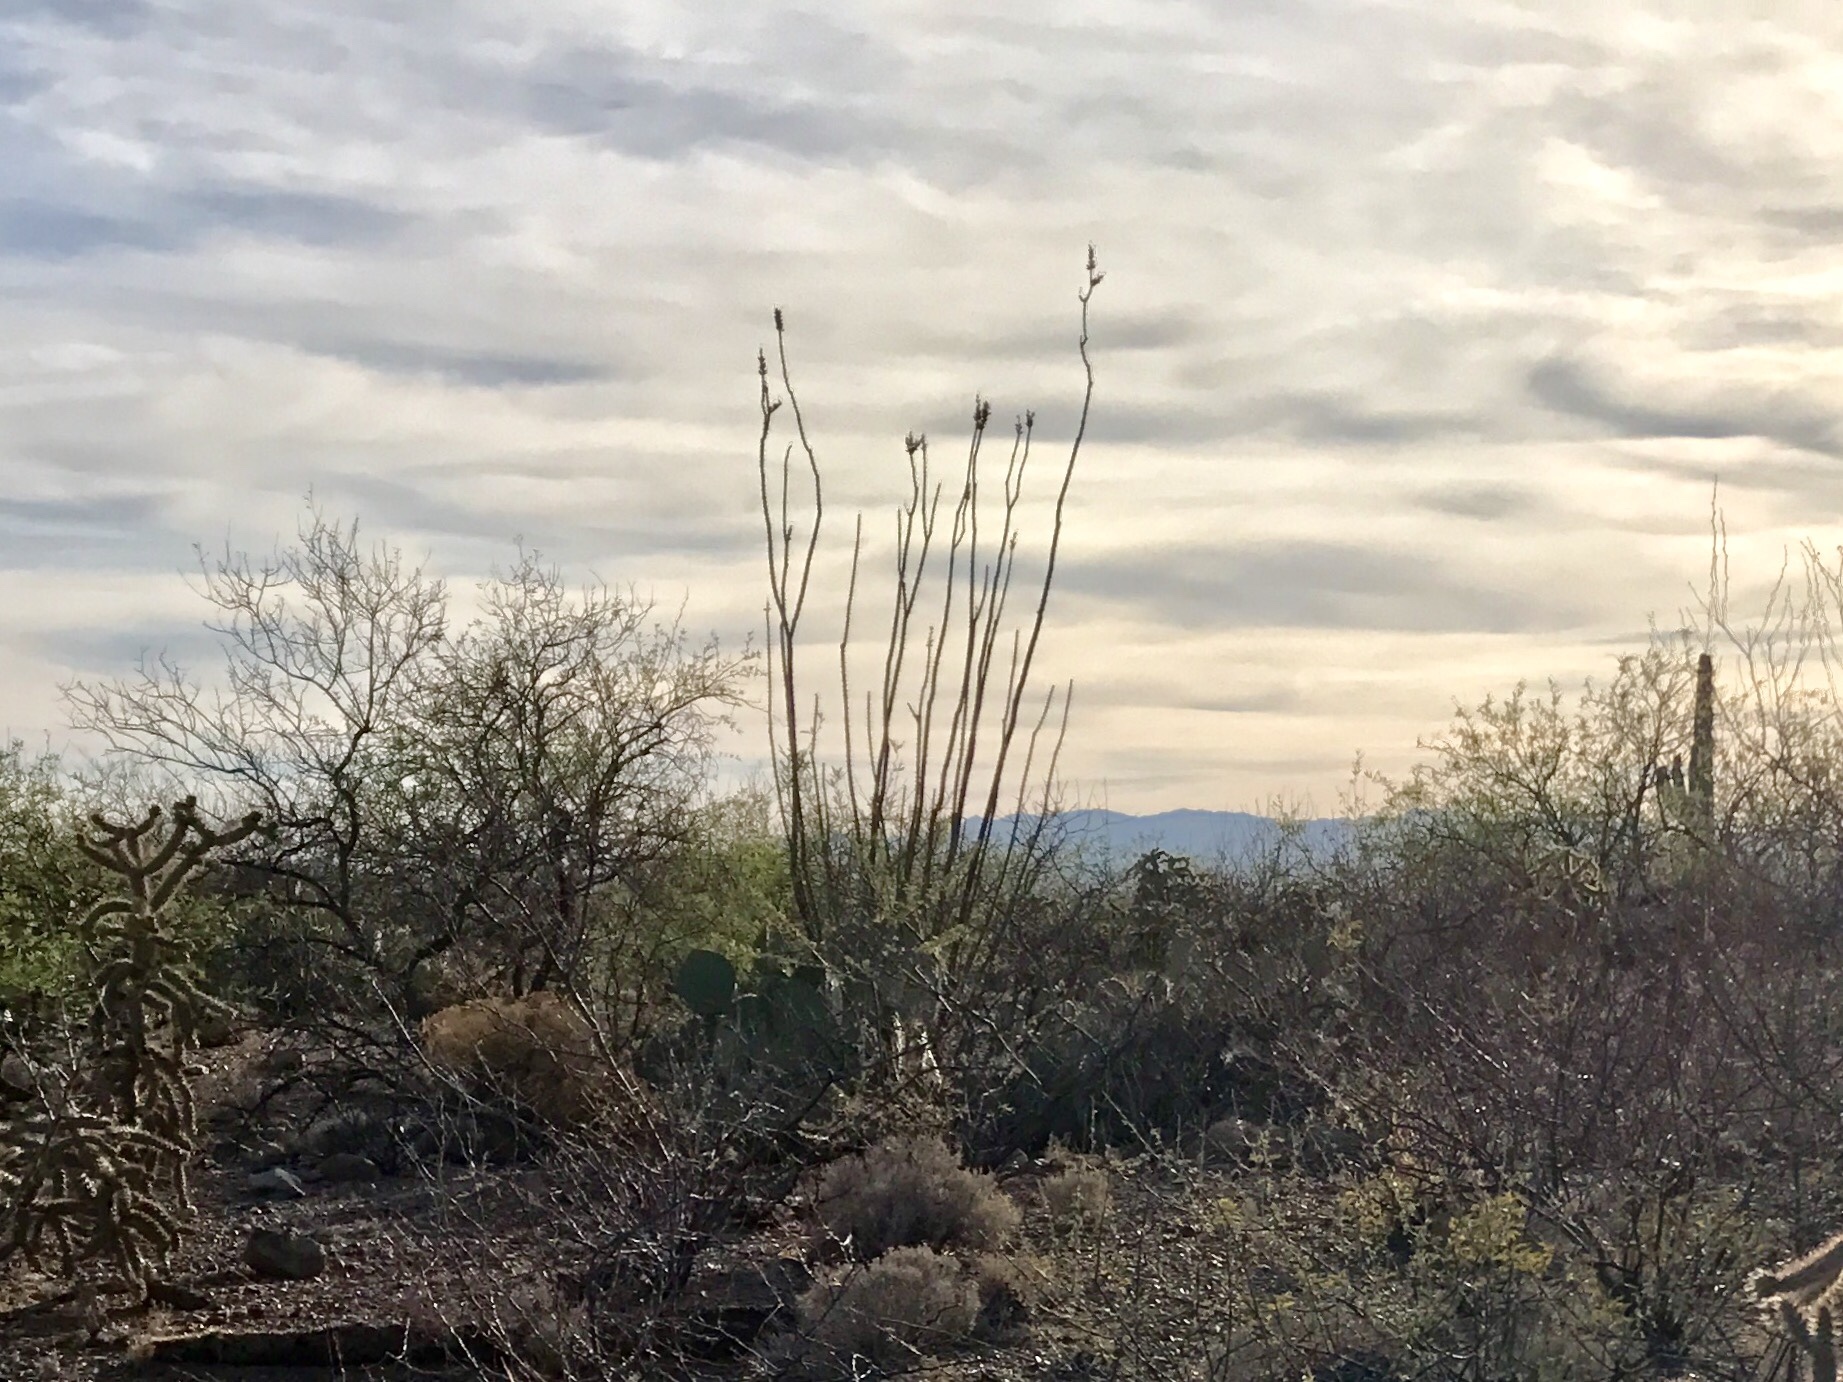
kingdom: Plantae
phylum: Tracheophyta
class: Magnoliopsida
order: Ericales
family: Fouquieriaceae
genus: Fouquieria
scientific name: Fouquieria splendens
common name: Vine-cactus
